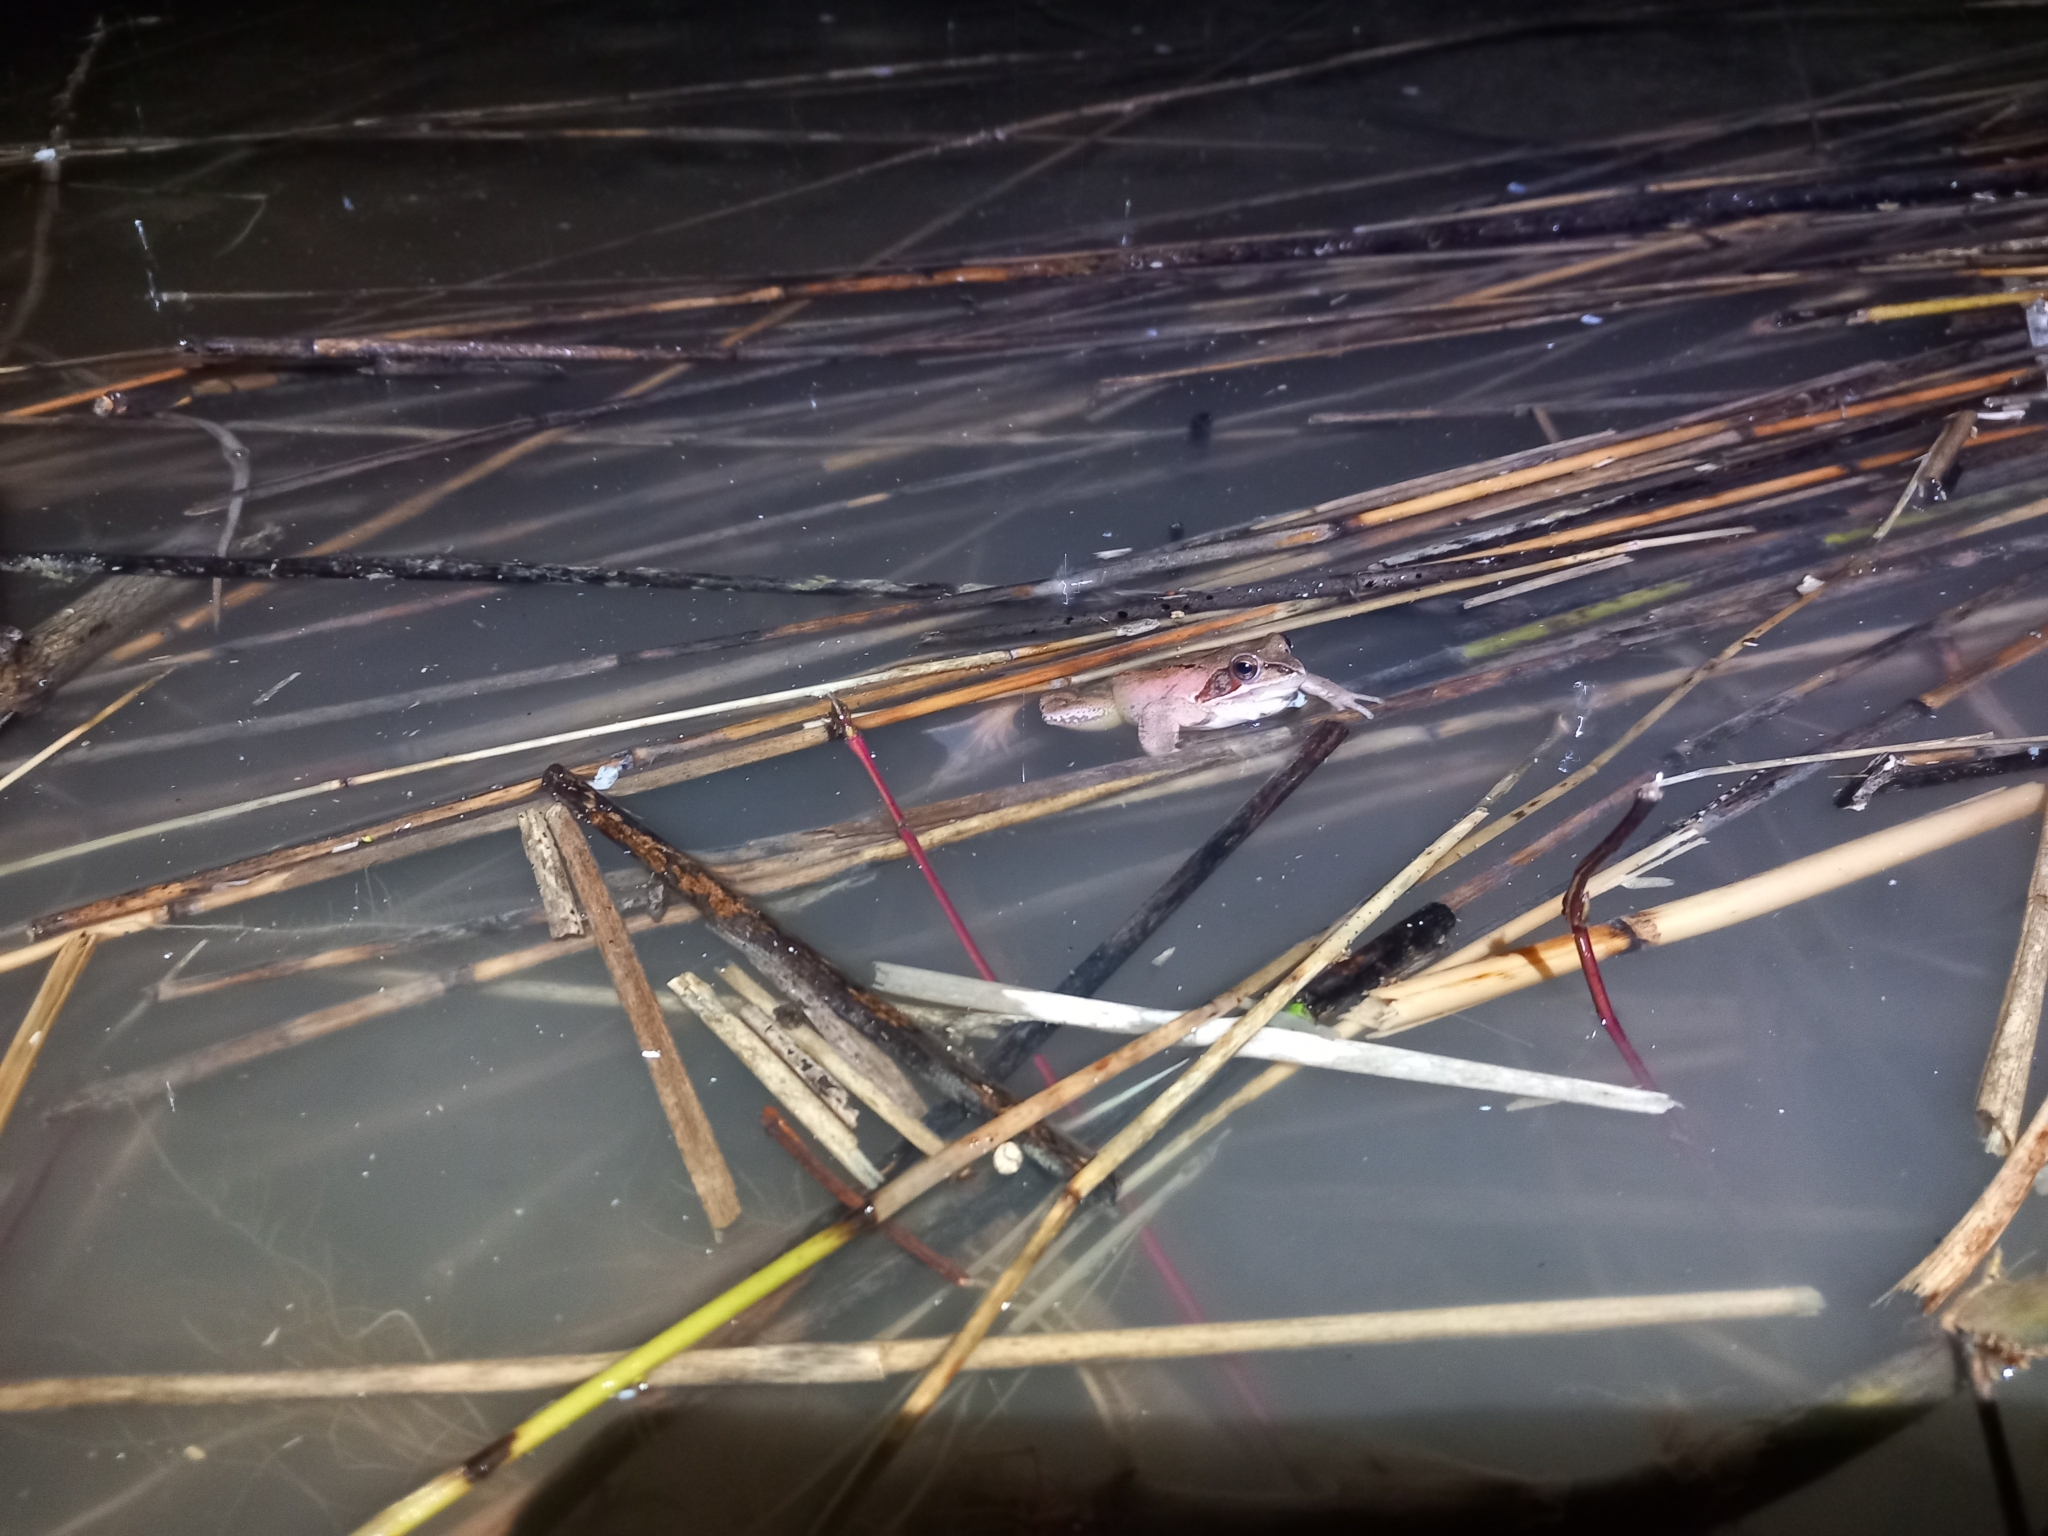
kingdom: Animalia
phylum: Chordata
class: Amphibia
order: Anura
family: Ranidae
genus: Rana
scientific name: Rana dalmatina
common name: Agile frog
